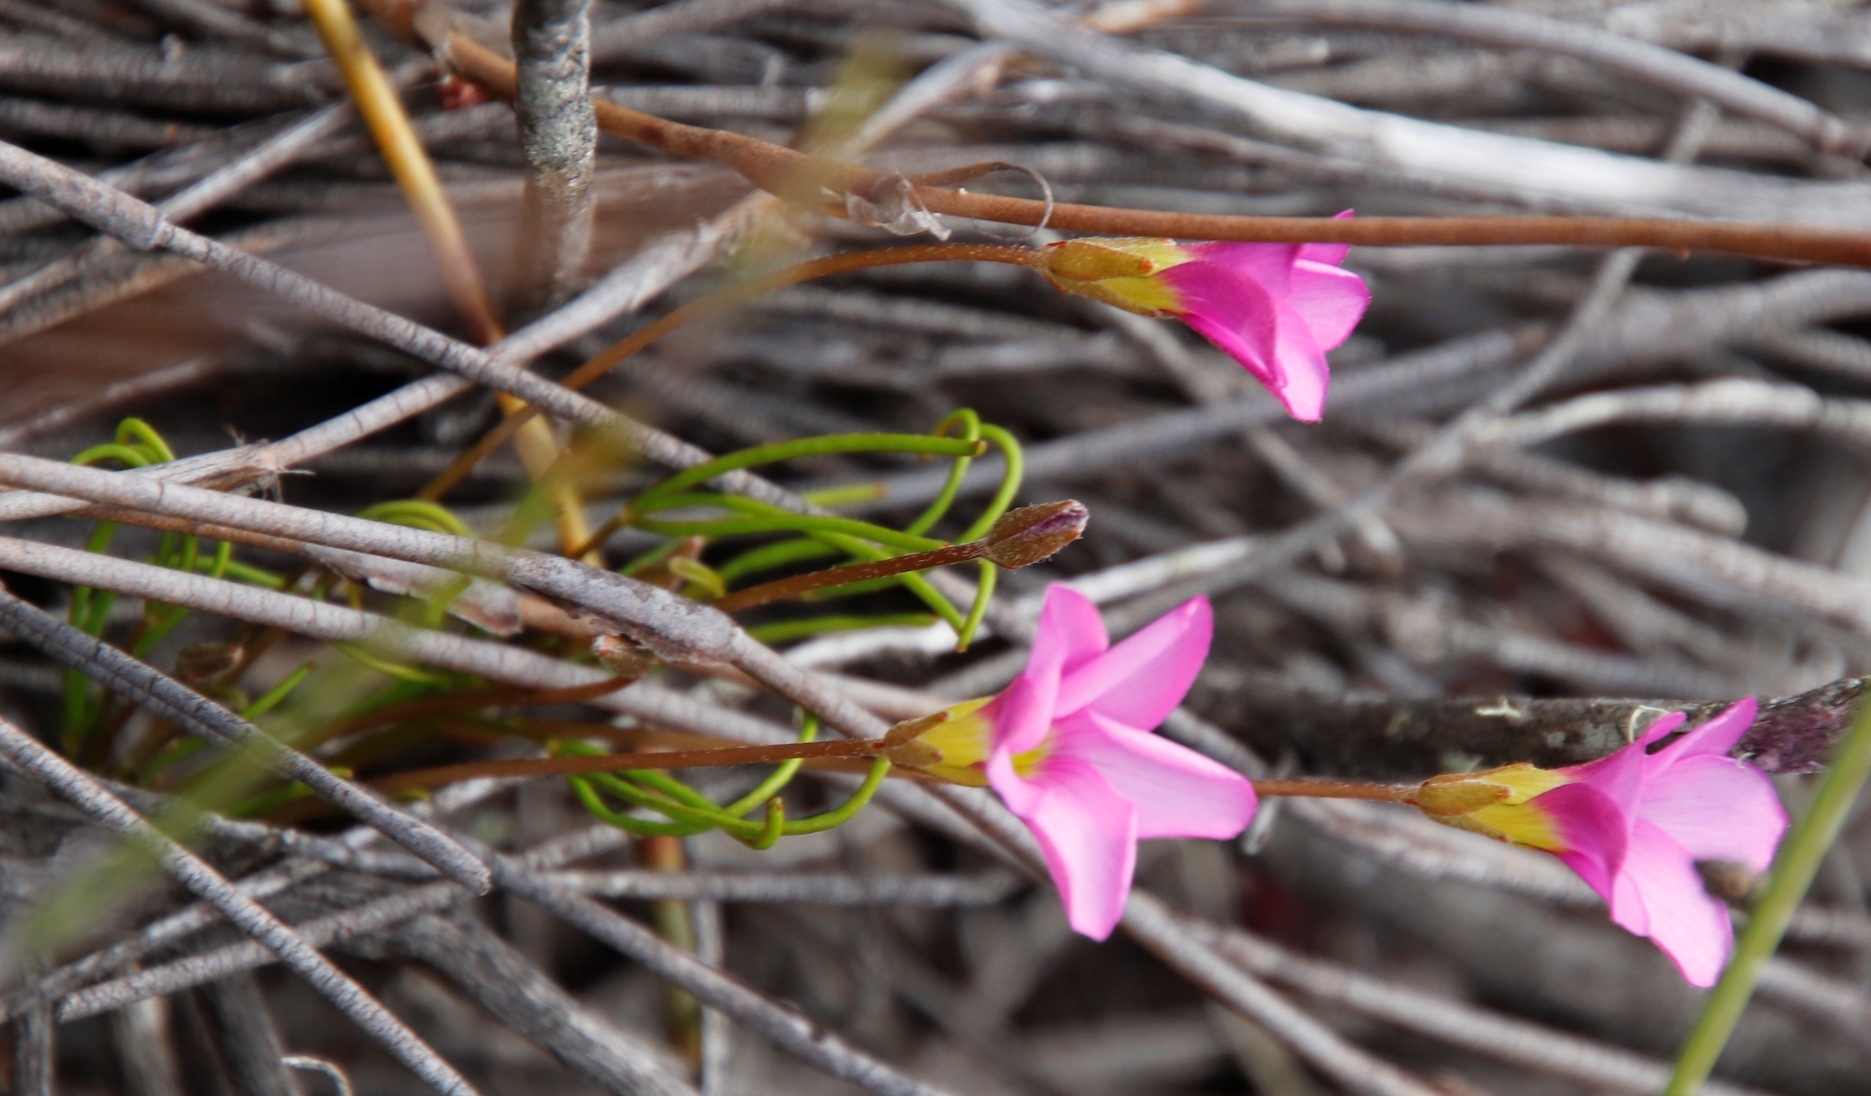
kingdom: Plantae
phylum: Tracheophyta
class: Magnoliopsida
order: Oxalidales
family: Oxalidaceae
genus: Oxalis
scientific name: Oxalis polyphylla
